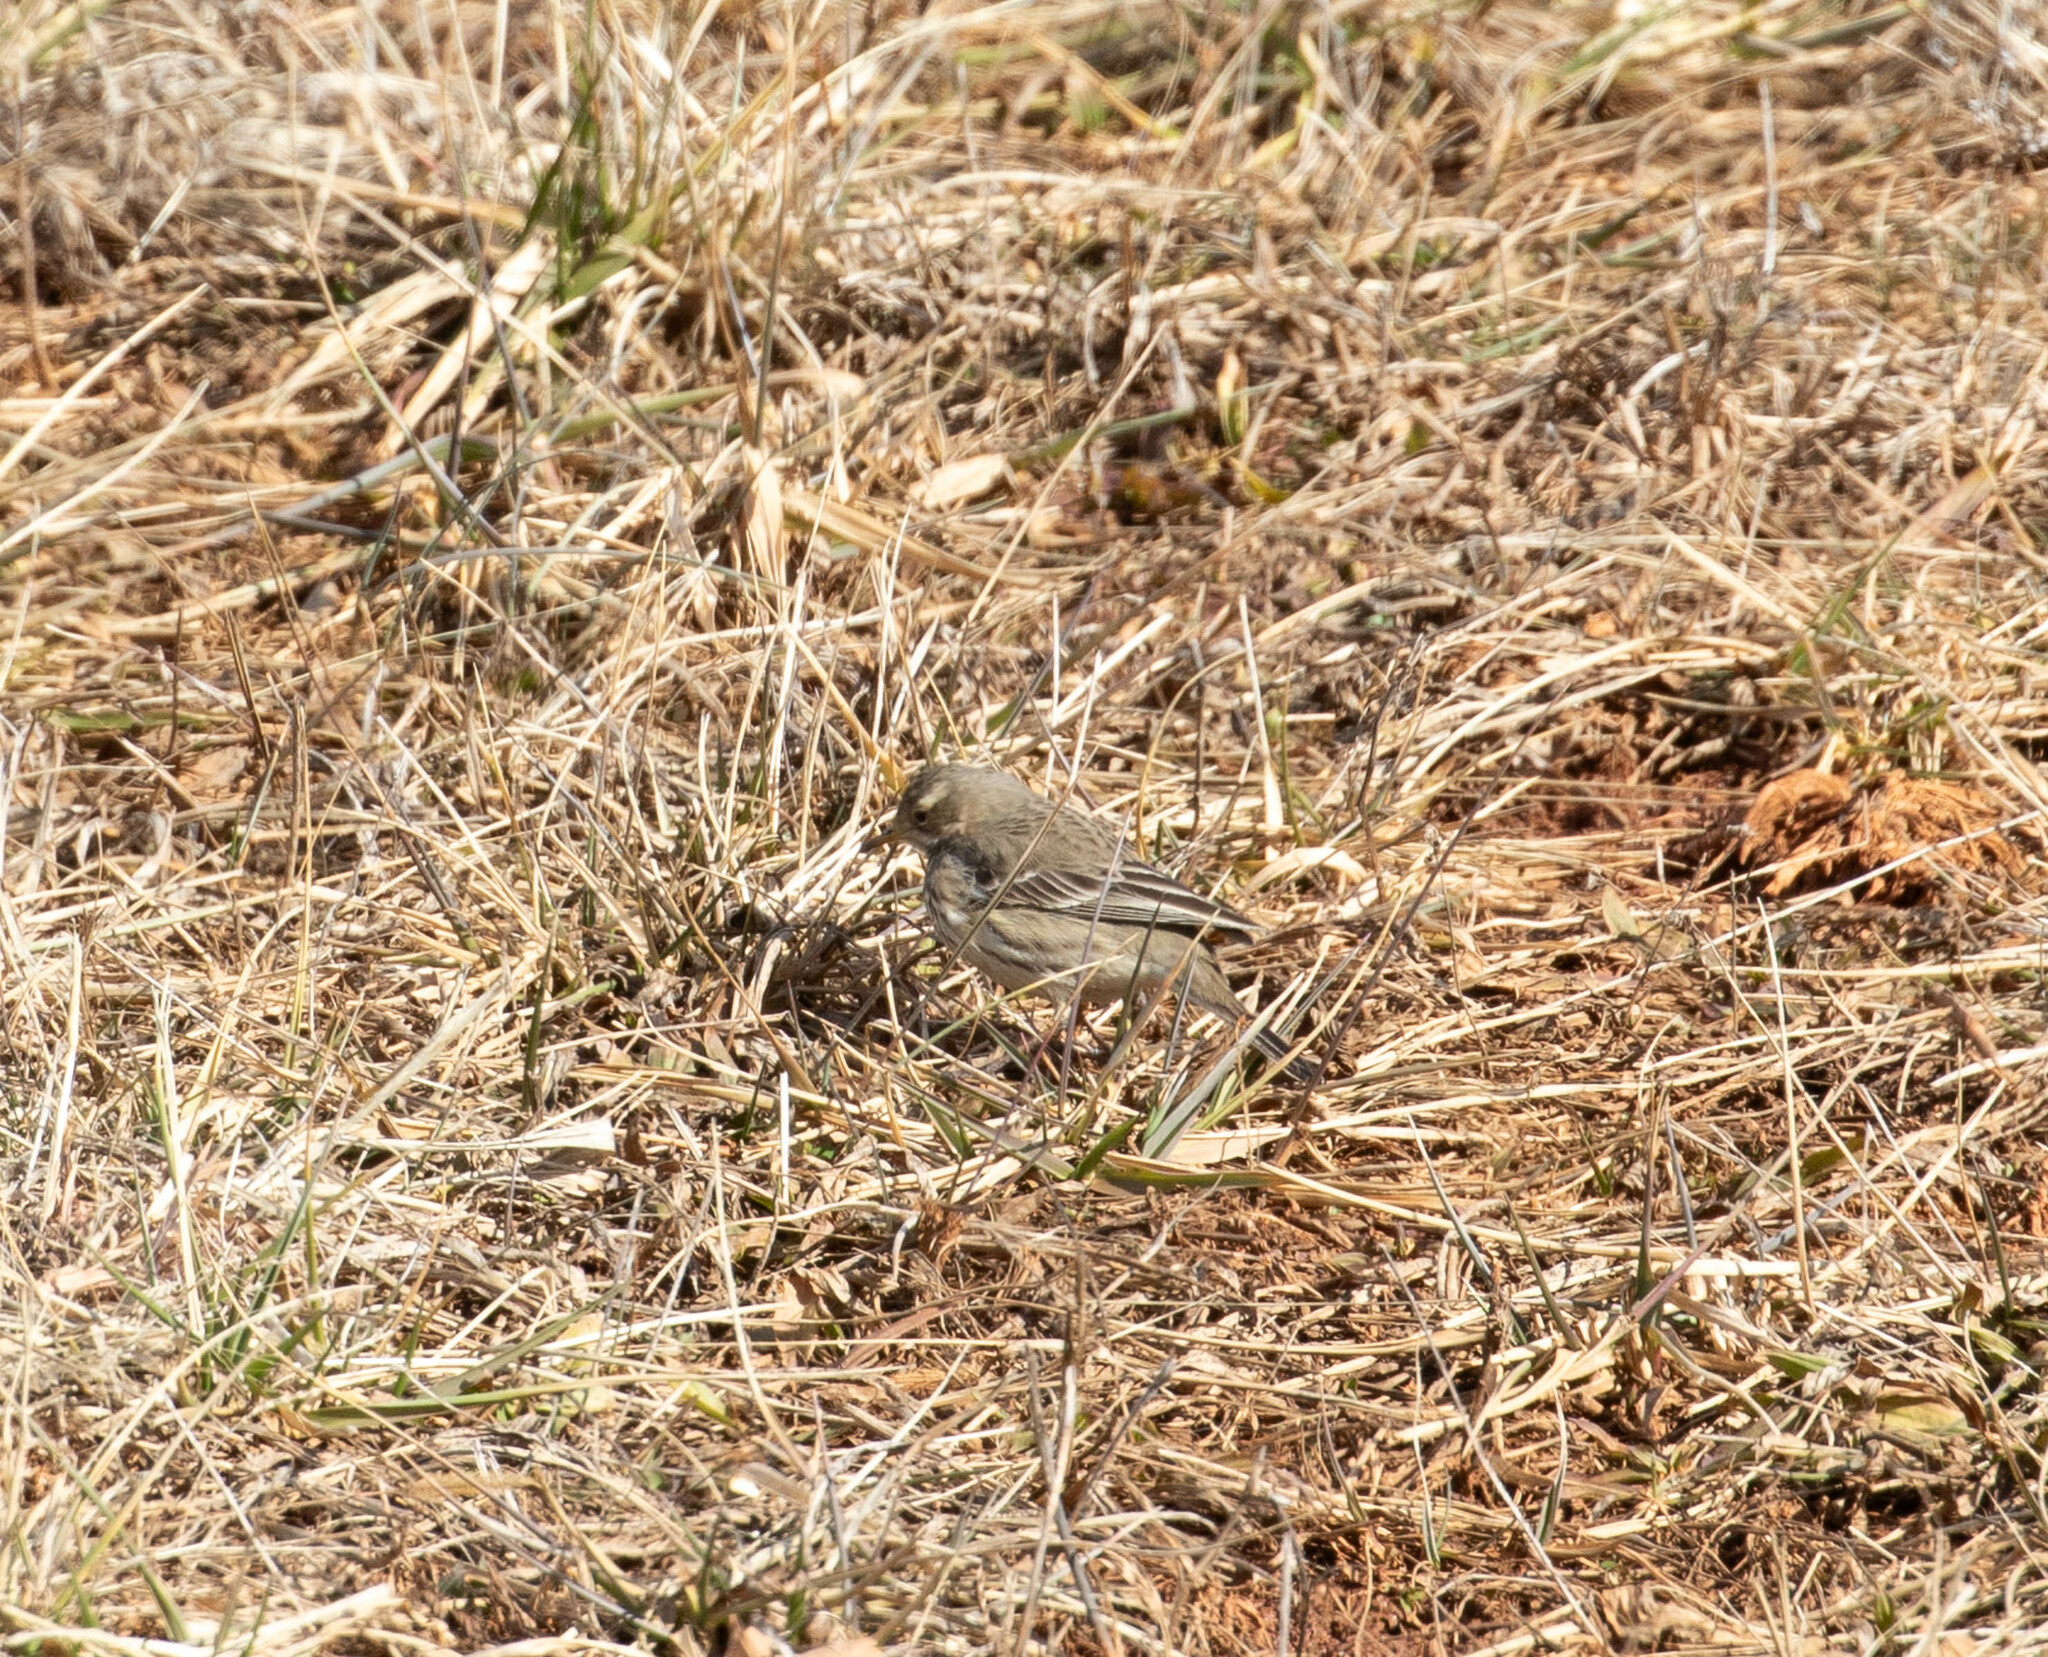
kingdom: Animalia
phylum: Chordata
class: Aves
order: Passeriformes
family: Motacillidae
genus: Anthus
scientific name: Anthus rubescens
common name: Buff-bellied pipit
